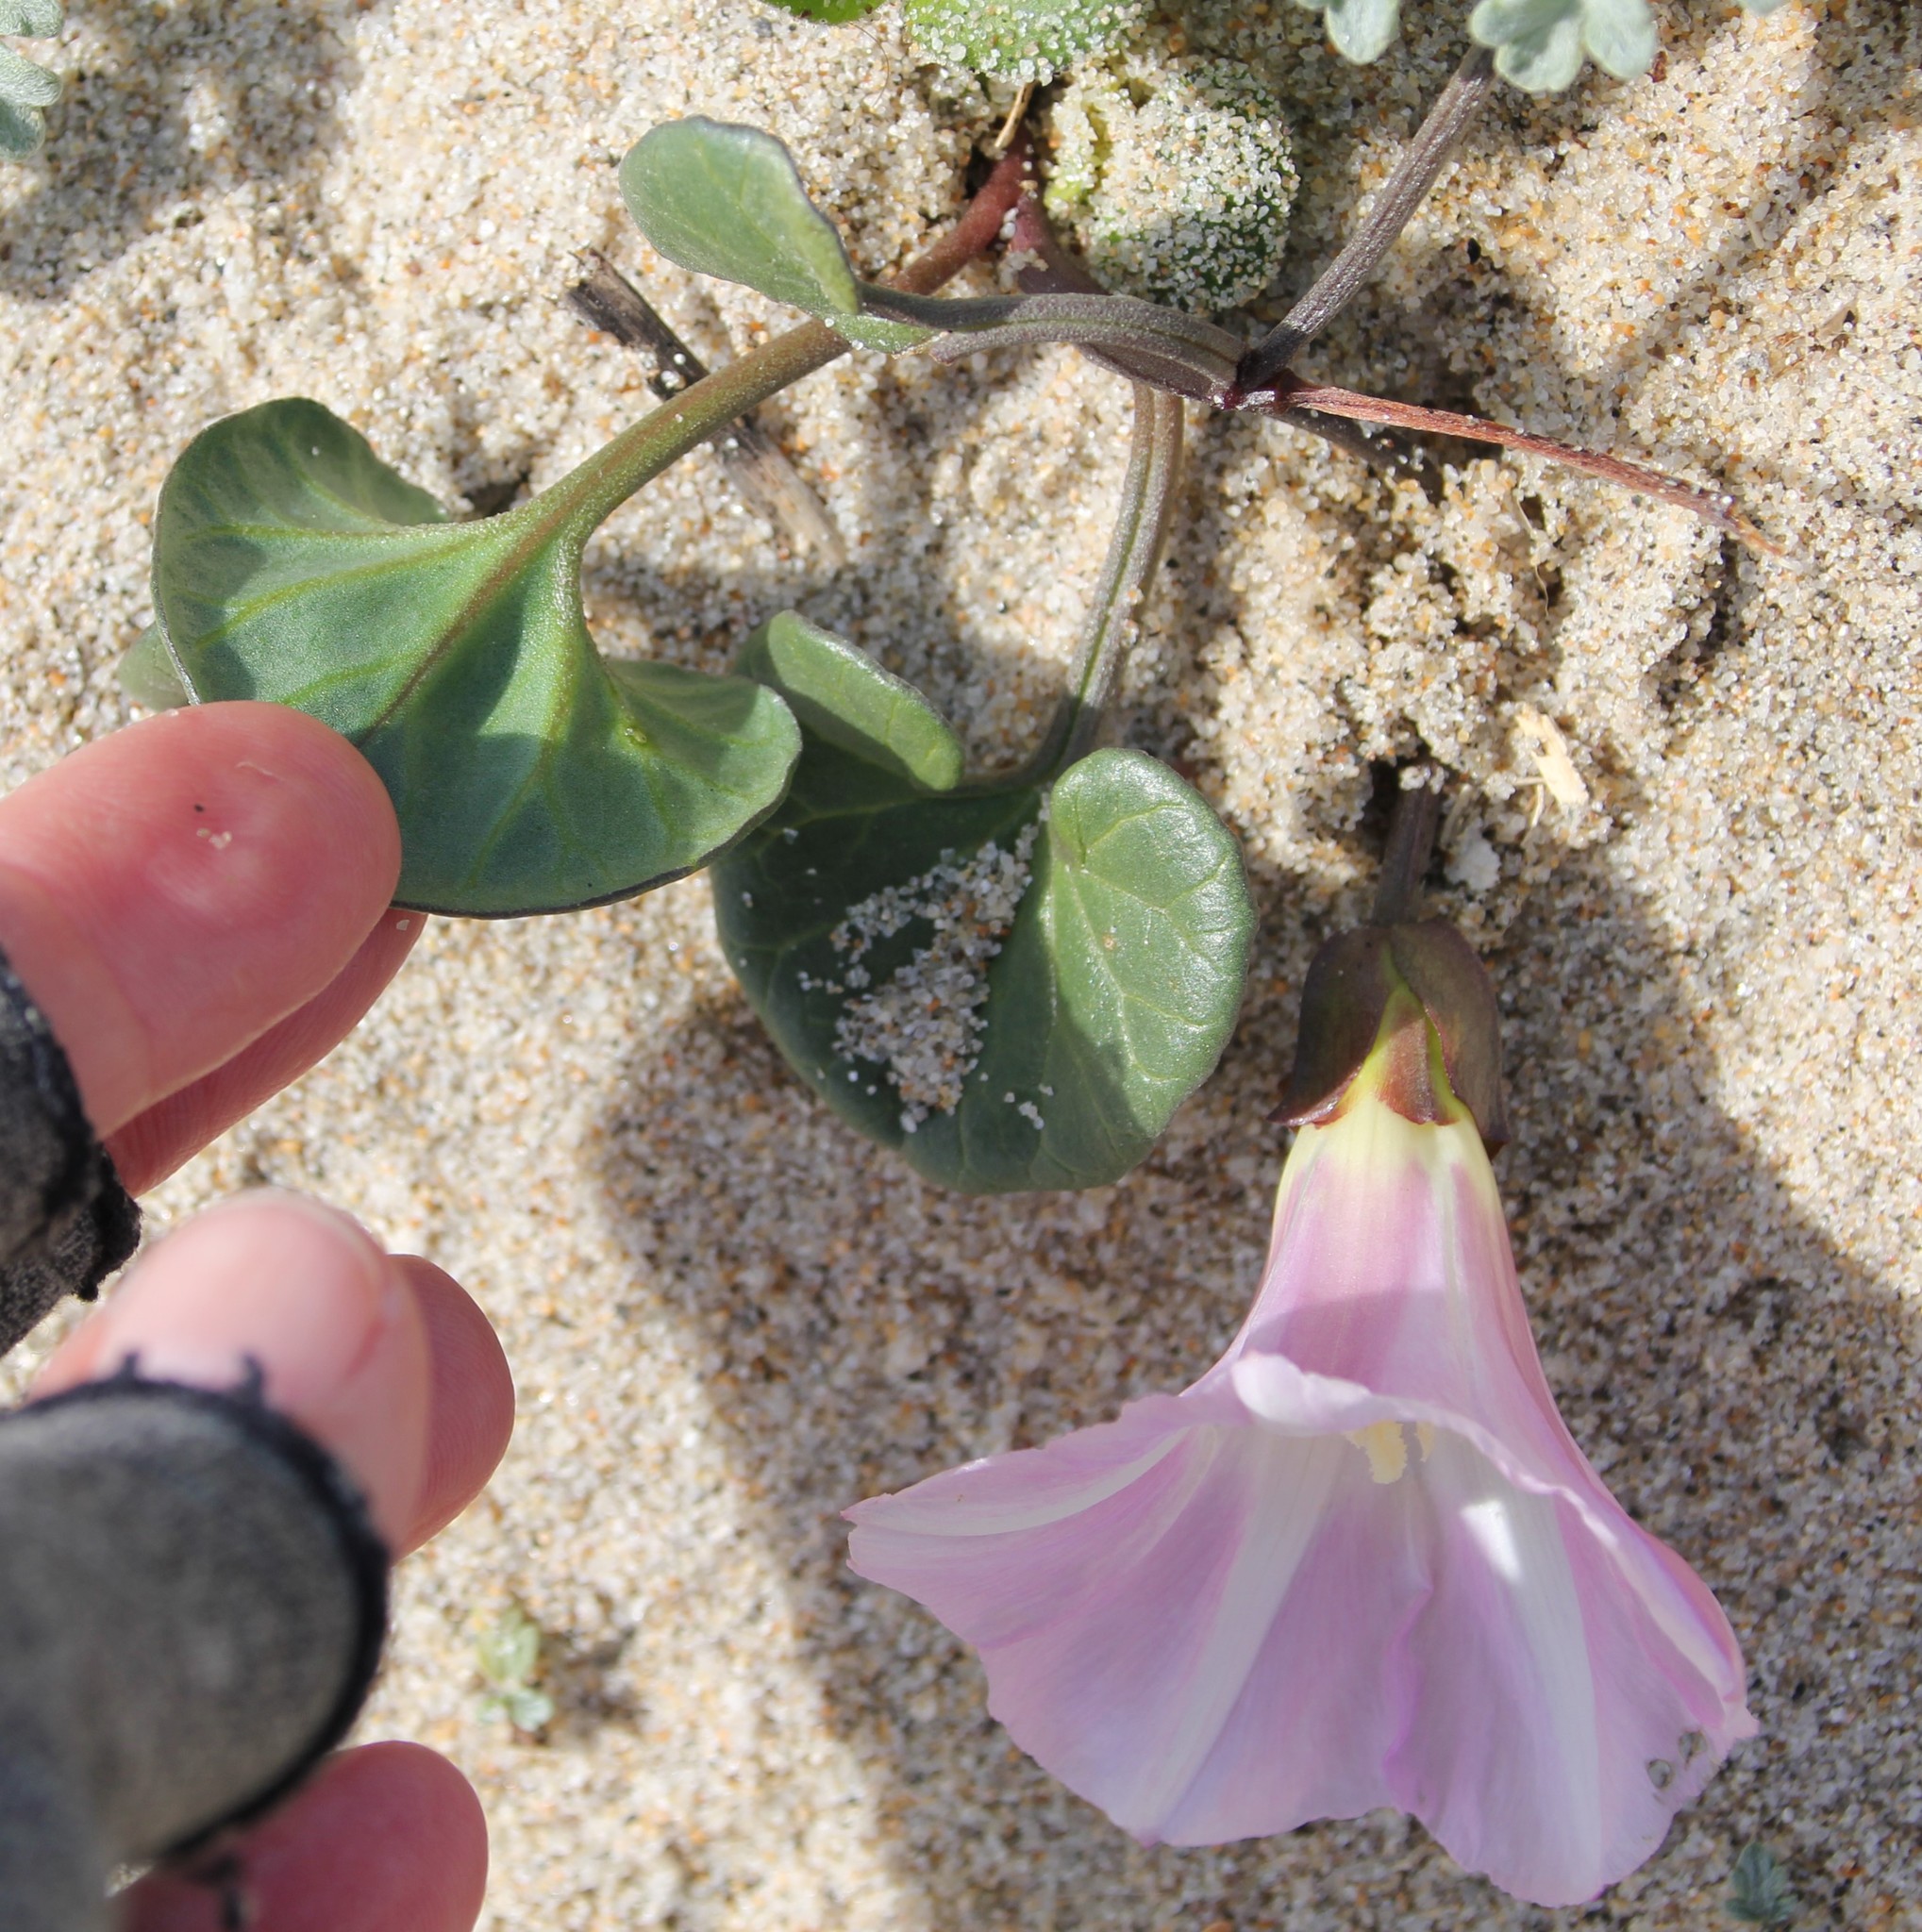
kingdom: Plantae
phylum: Tracheophyta
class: Magnoliopsida
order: Solanales
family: Convolvulaceae
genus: Calystegia
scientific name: Calystegia soldanella
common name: Sea bindweed
